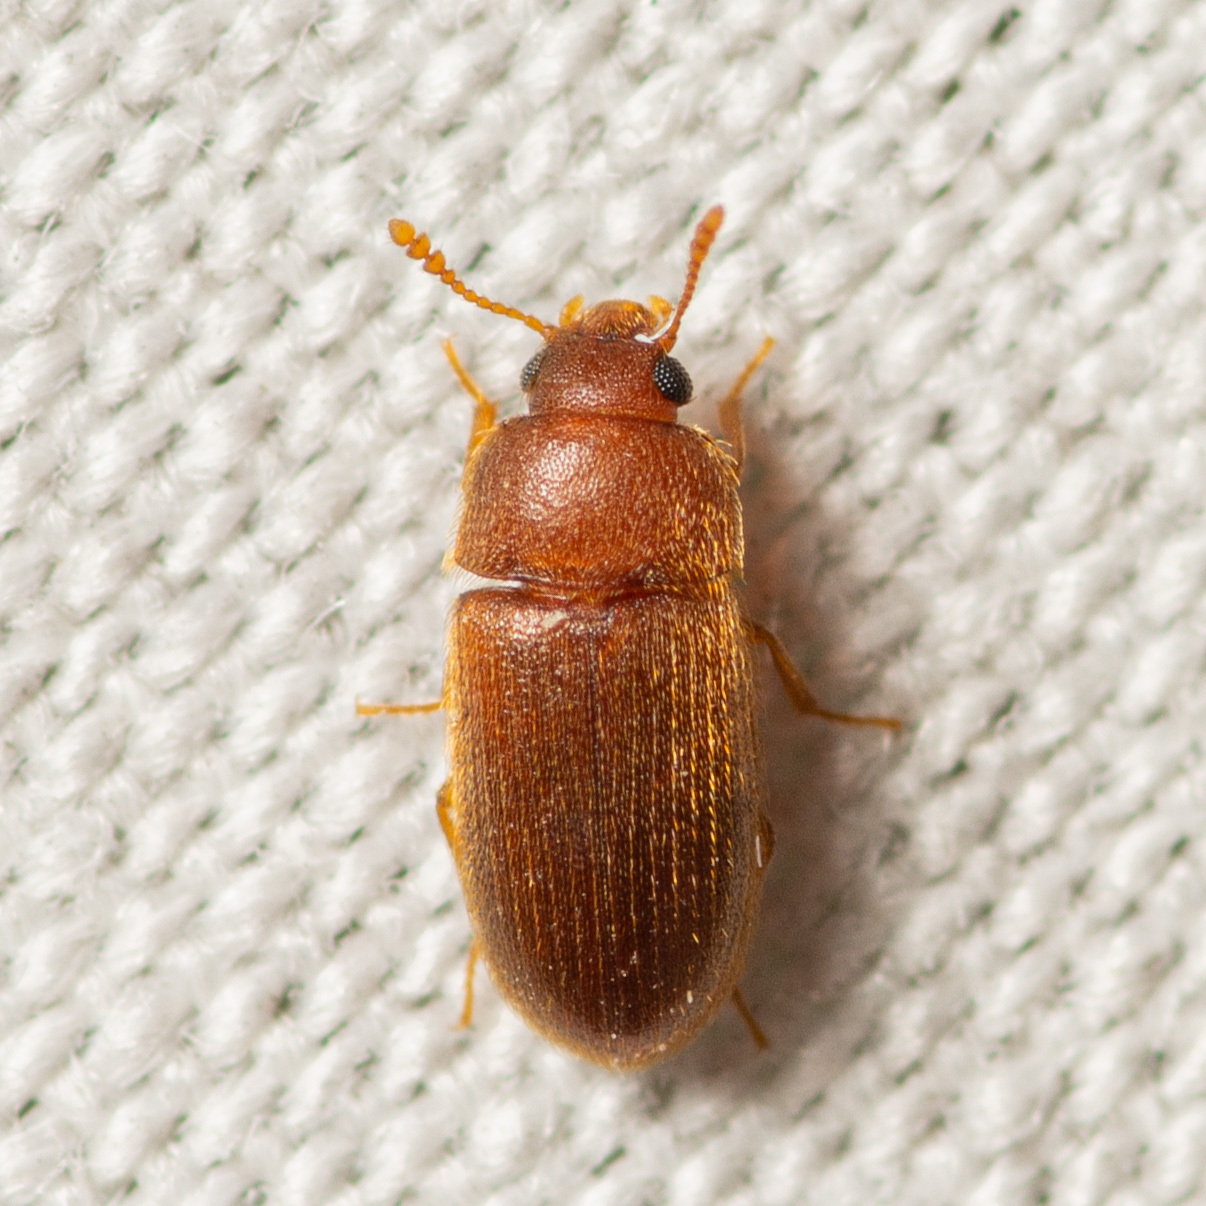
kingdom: Animalia
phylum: Arthropoda
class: Insecta
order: Coleoptera
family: Mycetophagidae
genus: Typhaea
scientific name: Typhaea stercorea
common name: Hairy fungus beetle
